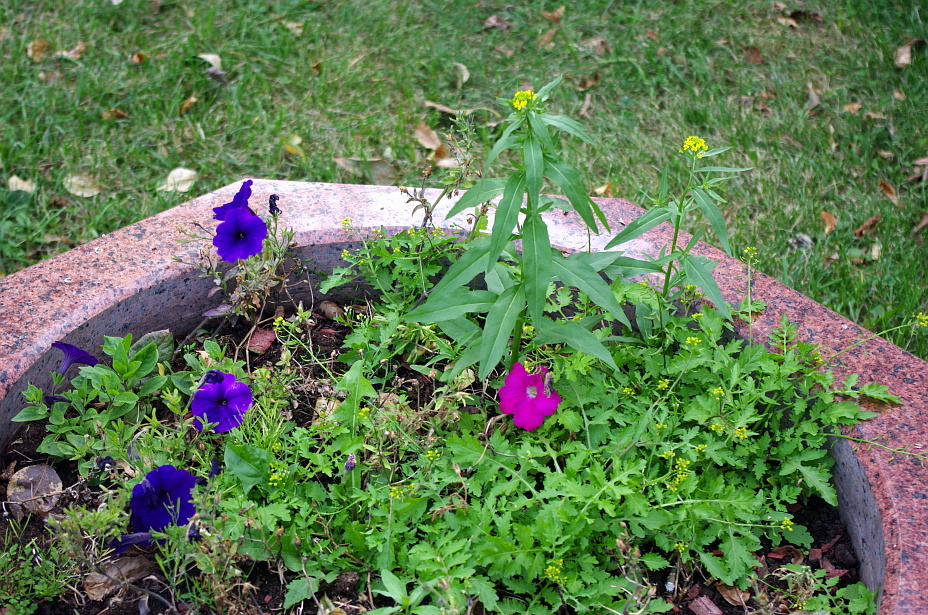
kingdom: Plantae
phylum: Tracheophyta
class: Magnoliopsida
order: Brassicales
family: Brassicaceae
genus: Erysimum
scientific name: Erysimum cheiranthoides
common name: Treacle mustard
